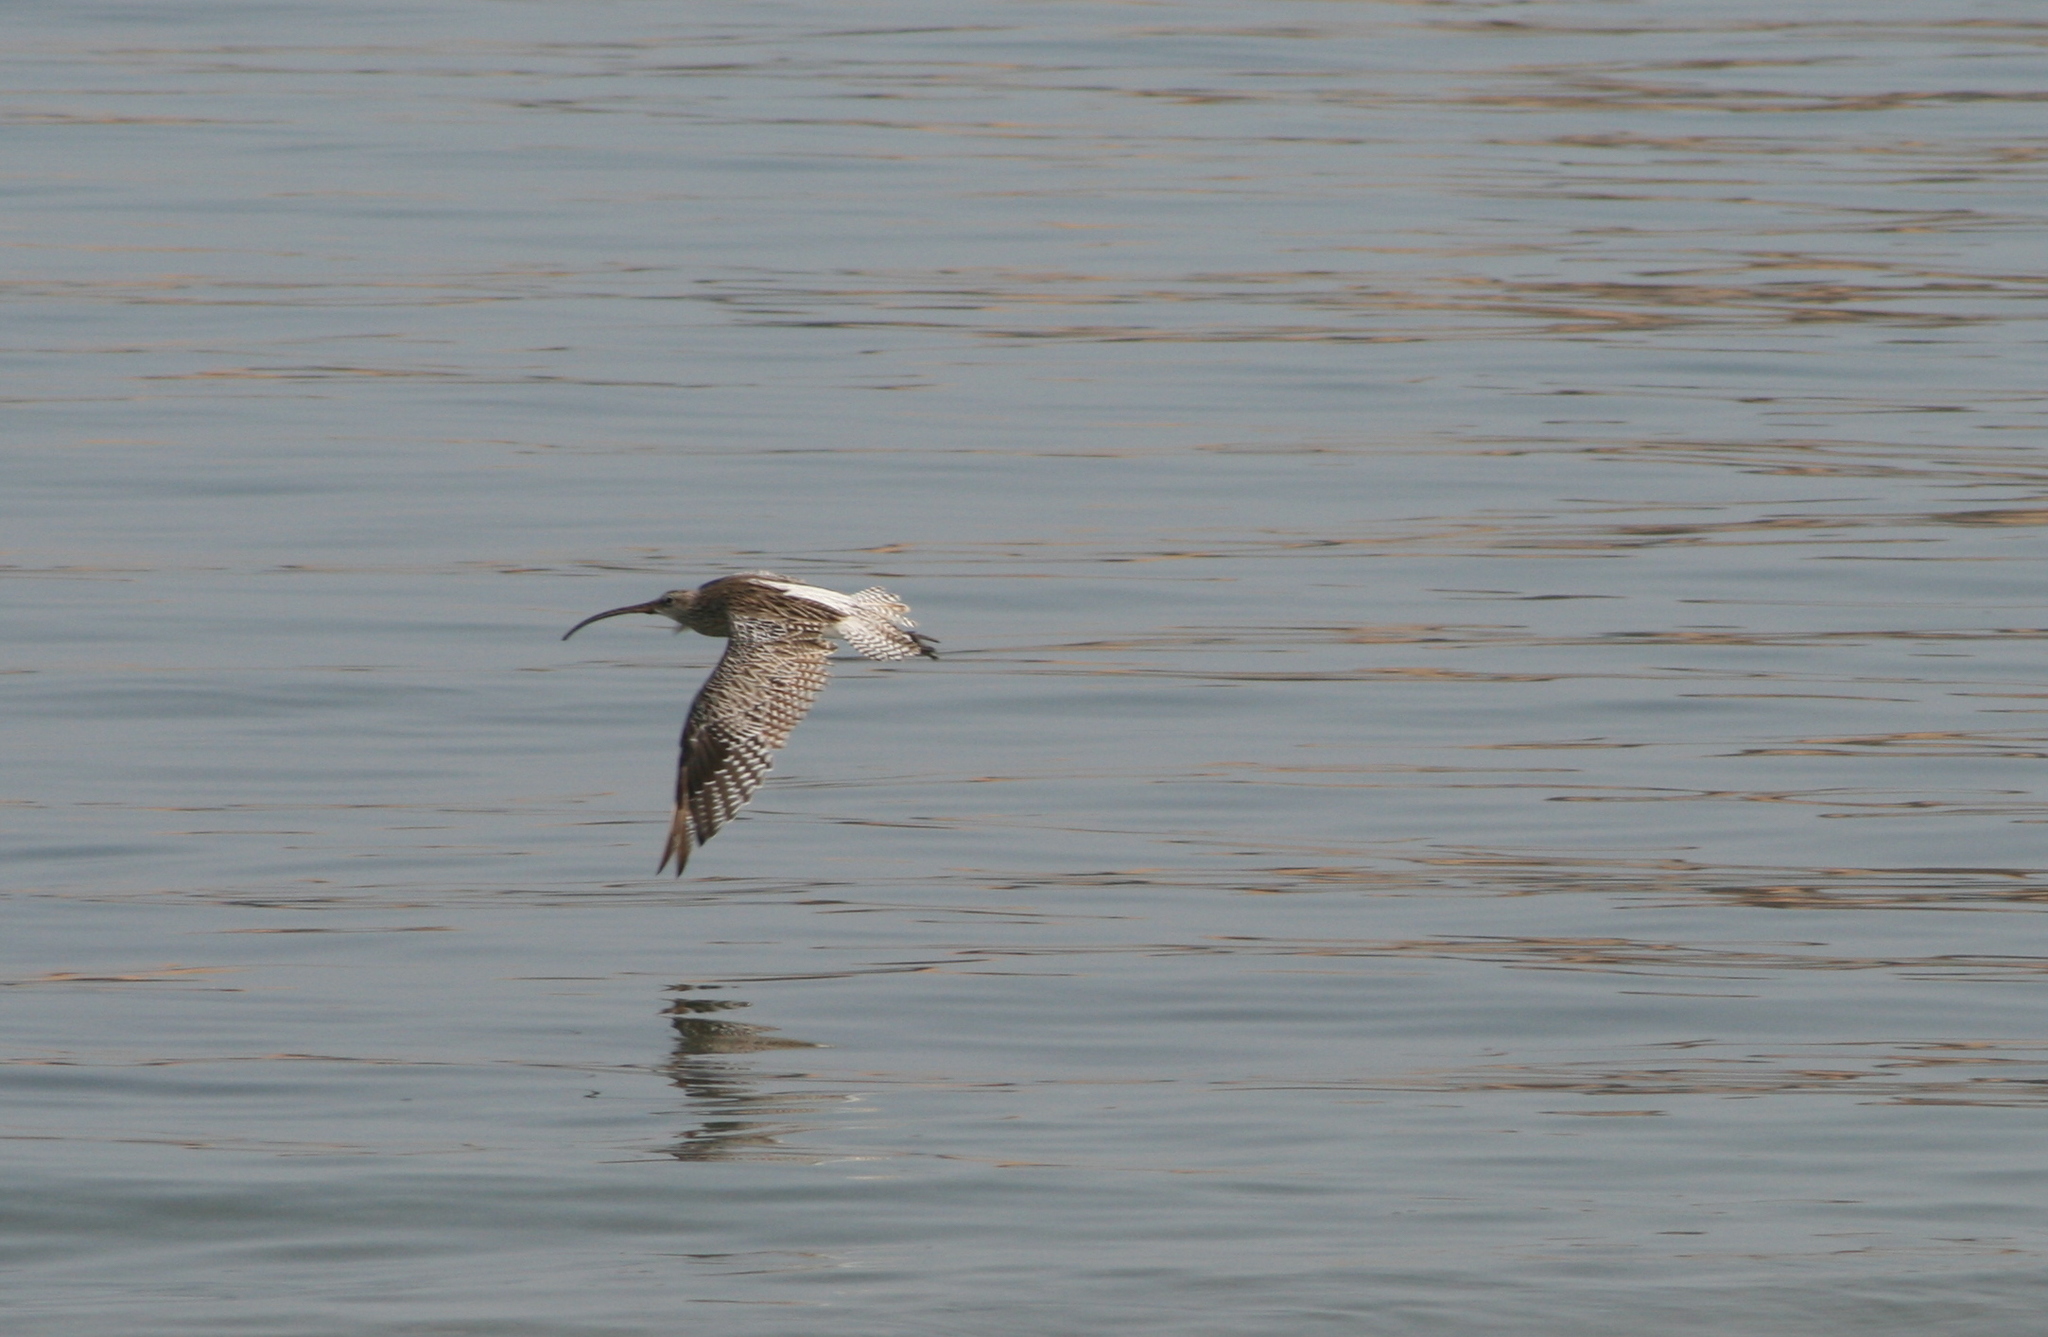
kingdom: Animalia
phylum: Chordata
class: Aves
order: Charadriiformes
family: Scolopacidae
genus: Numenius
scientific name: Numenius arquata
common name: Eurasian curlew
